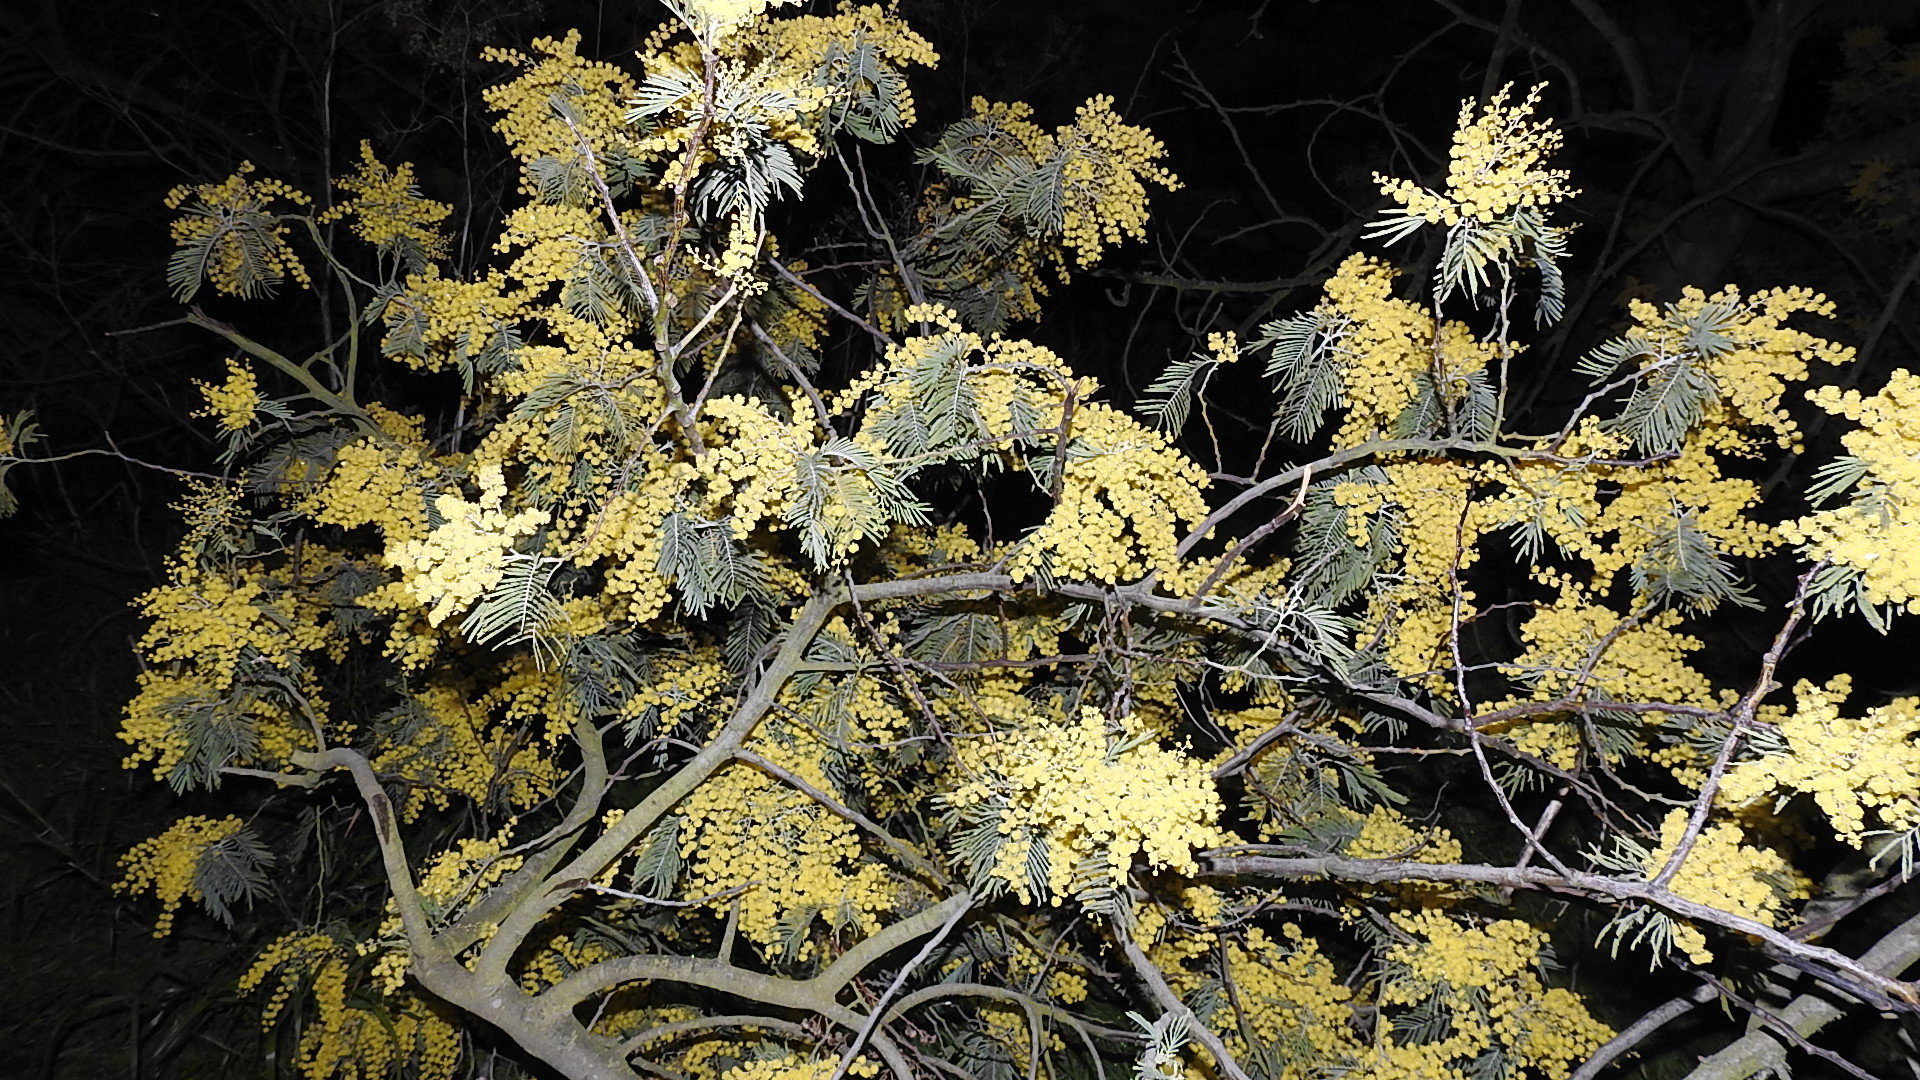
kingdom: Plantae
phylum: Tracheophyta
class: Magnoliopsida
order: Fabales
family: Fabaceae
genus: Acacia
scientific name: Acacia dealbata
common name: Silver wattle
